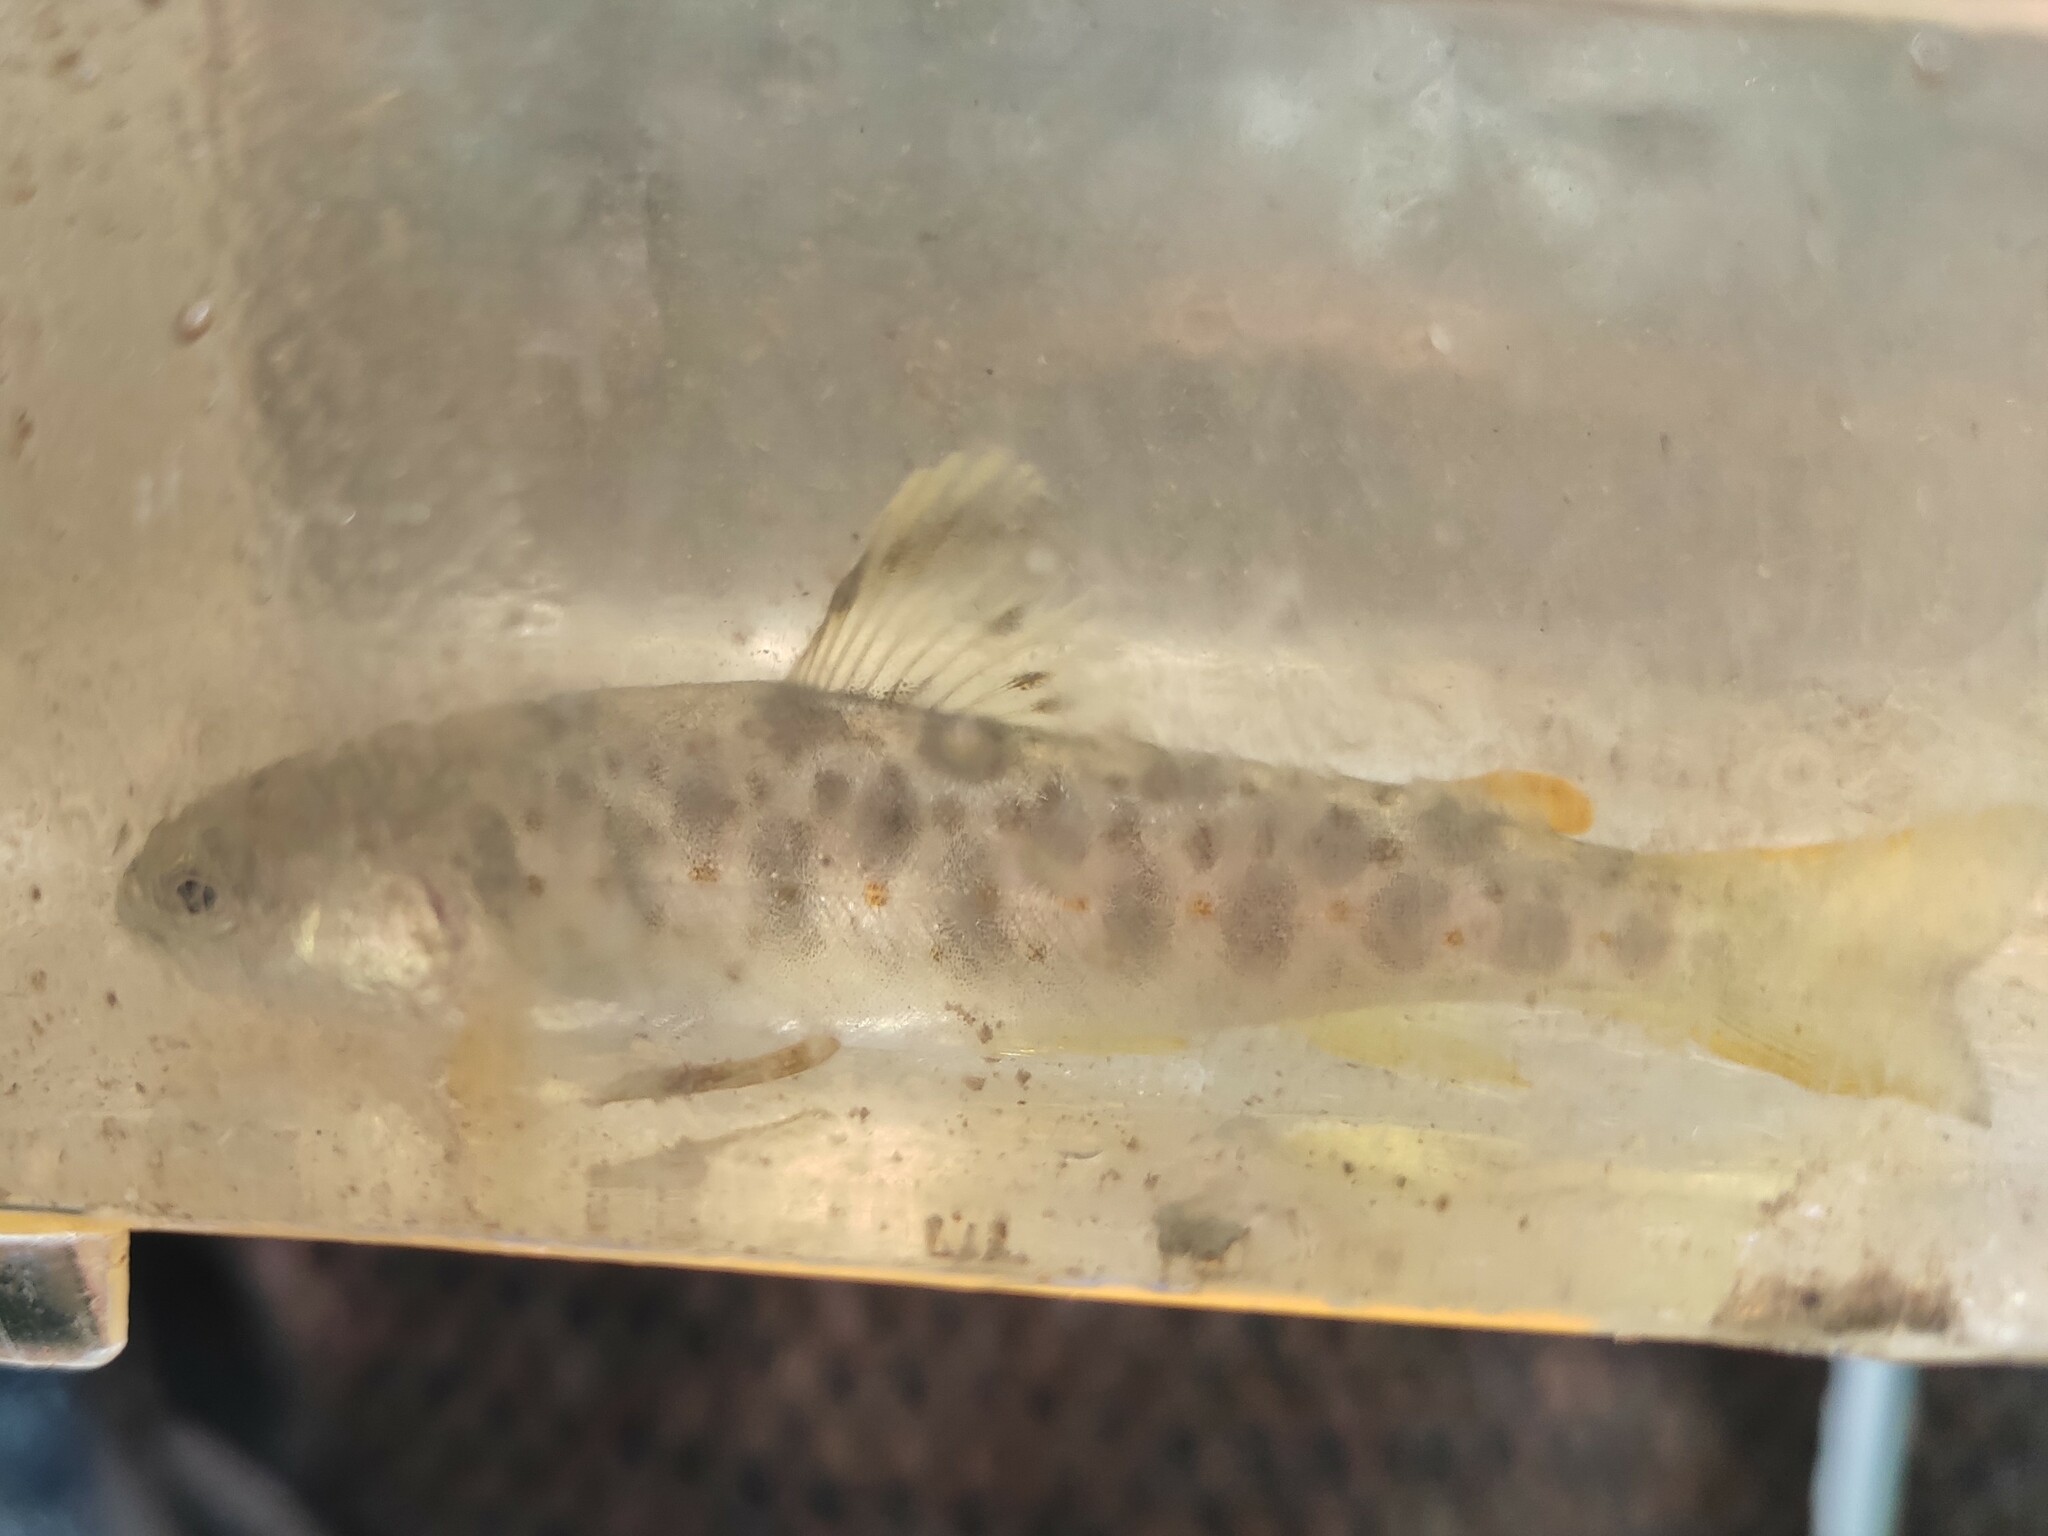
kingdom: Animalia
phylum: Chordata
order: Salmoniformes
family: Salmonidae
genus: Salmo
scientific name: Salmo trutta
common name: Brown trout
